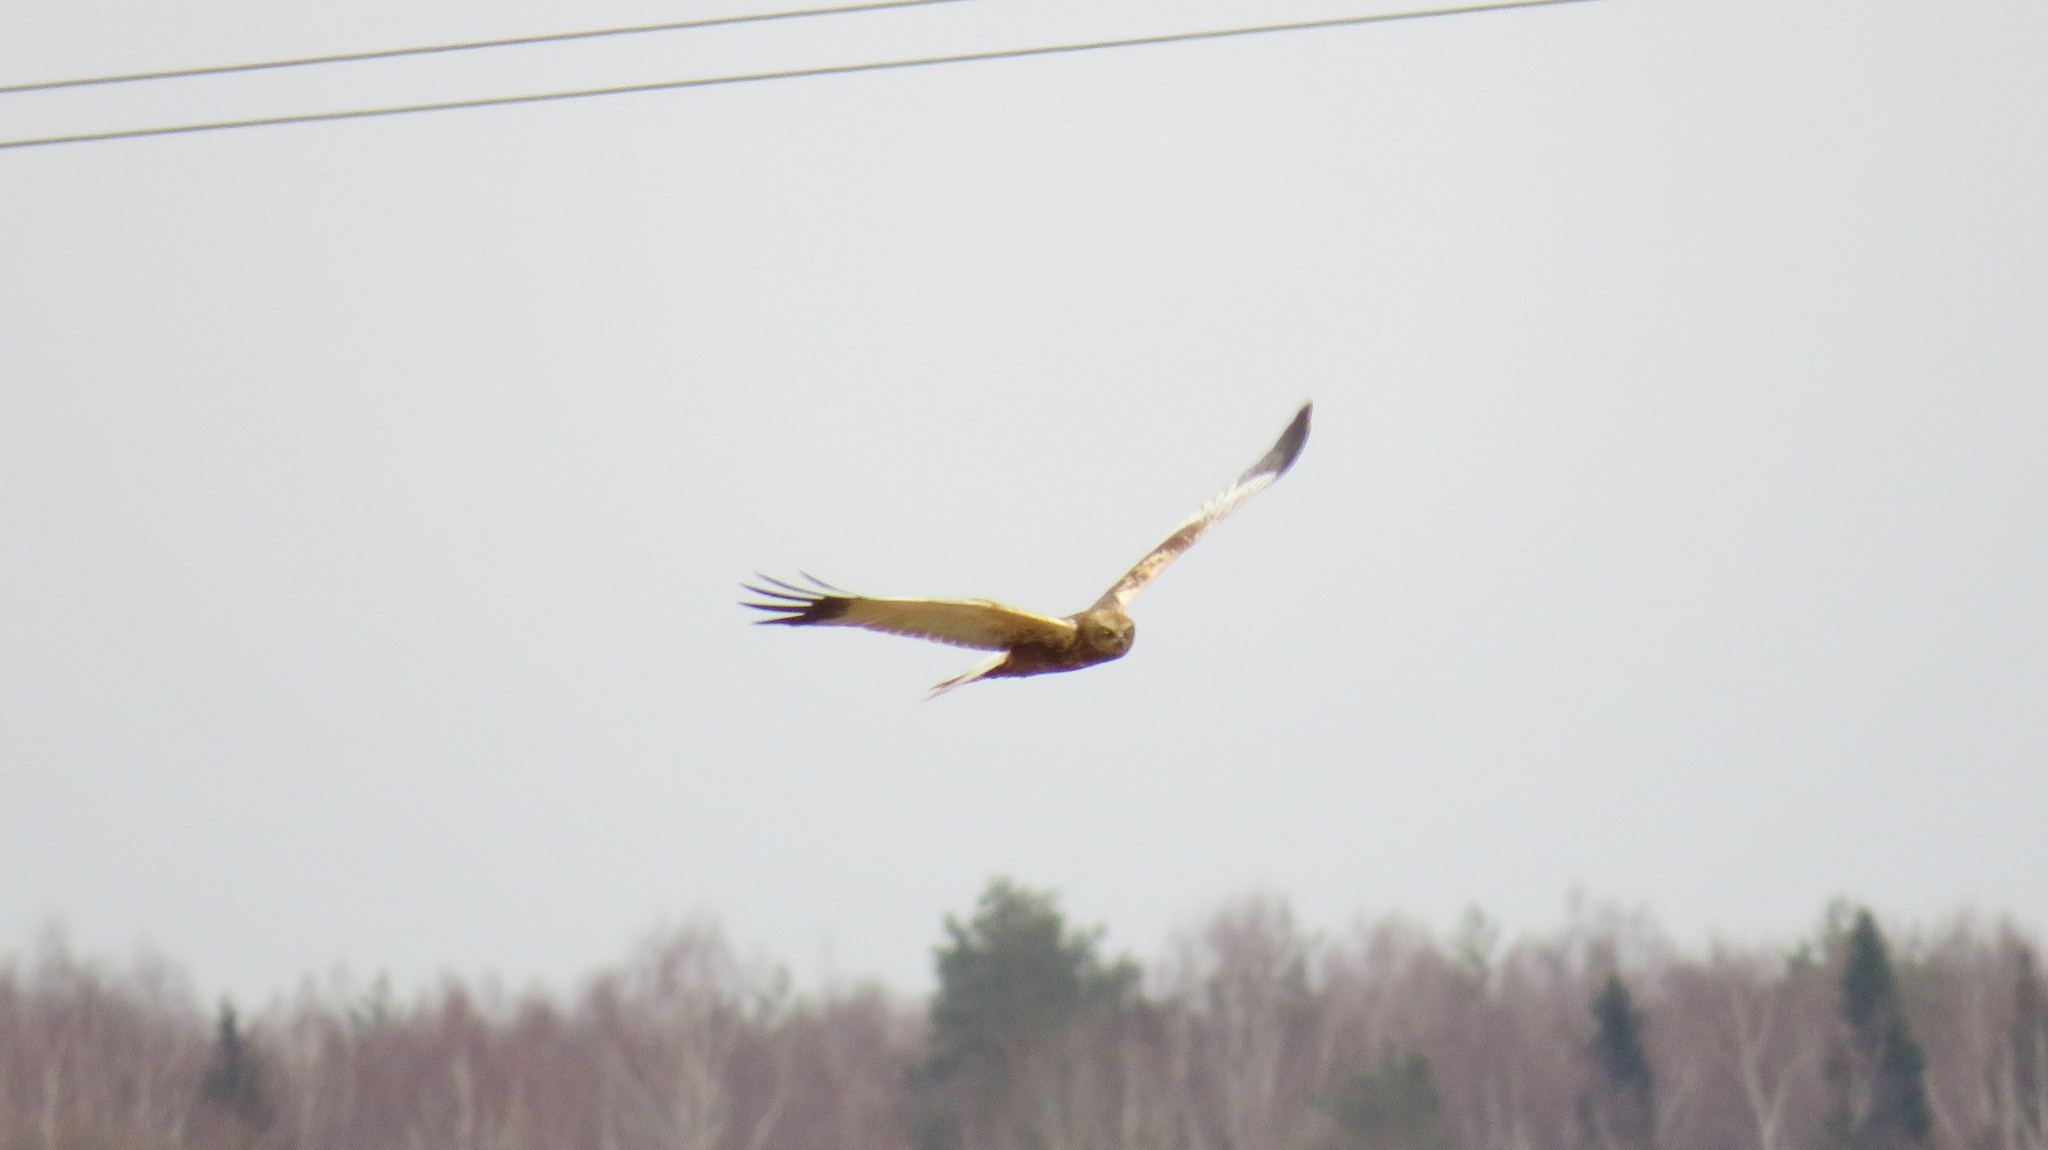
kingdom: Animalia
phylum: Chordata
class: Aves
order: Accipitriformes
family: Accipitridae
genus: Circus
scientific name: Circus aeruginosus
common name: Western marsh harrier
